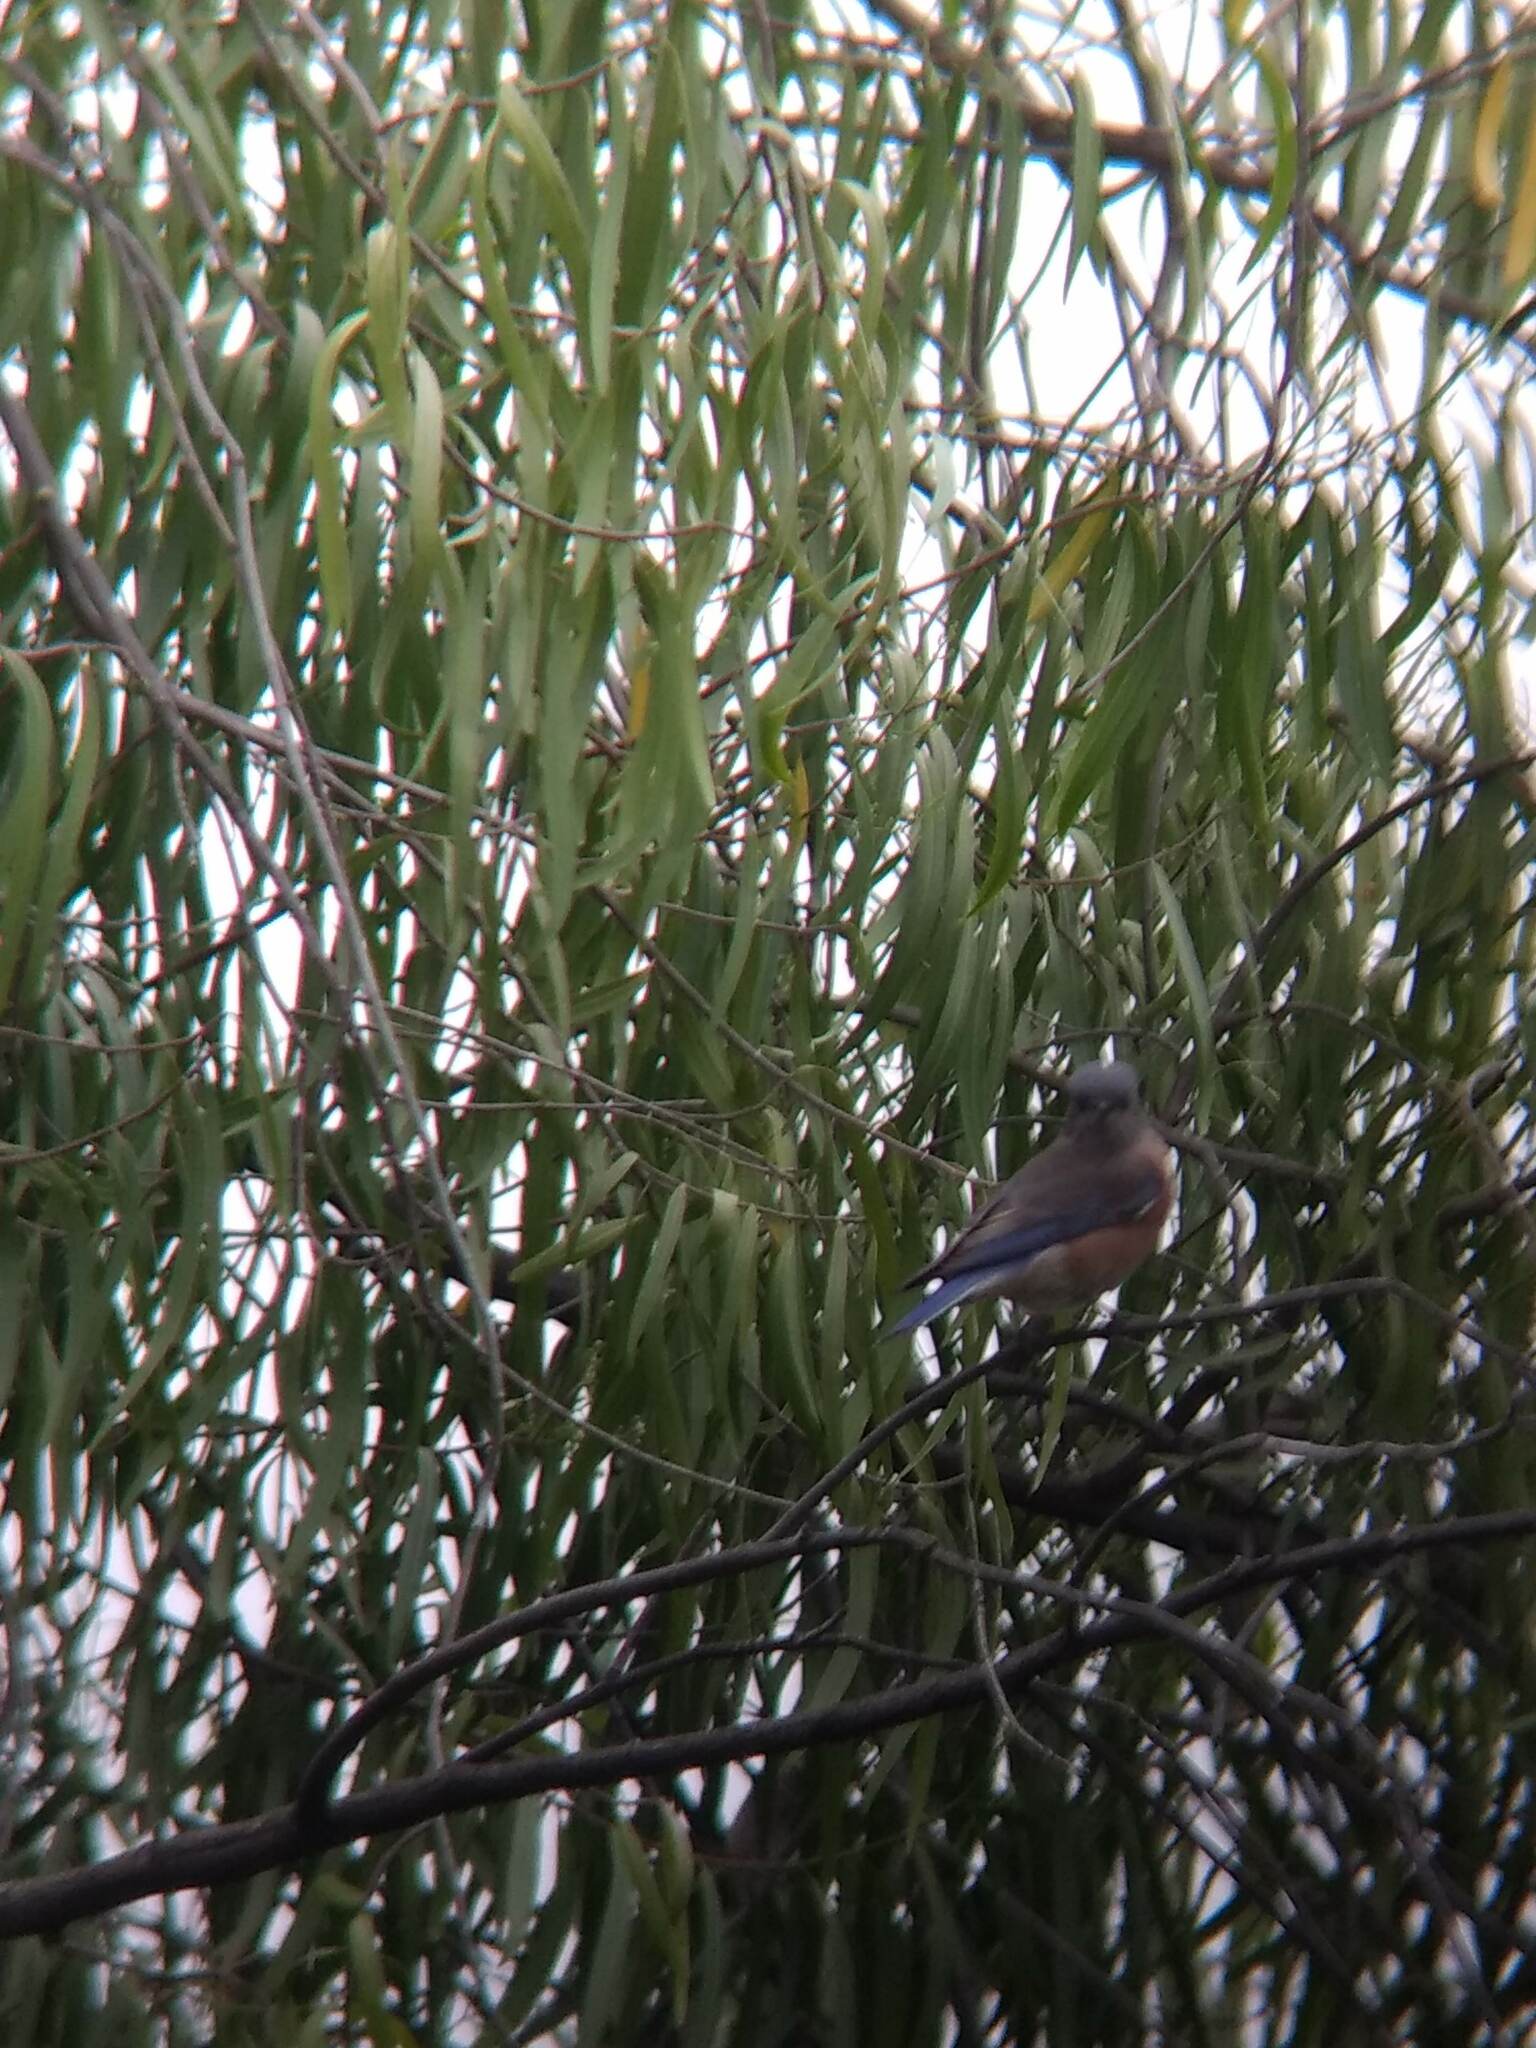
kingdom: Animalia
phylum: Chordata
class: Aves
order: Passeriformes
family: Turdidae
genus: Sialia
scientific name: Sialia mexicana
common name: Western bluebird
